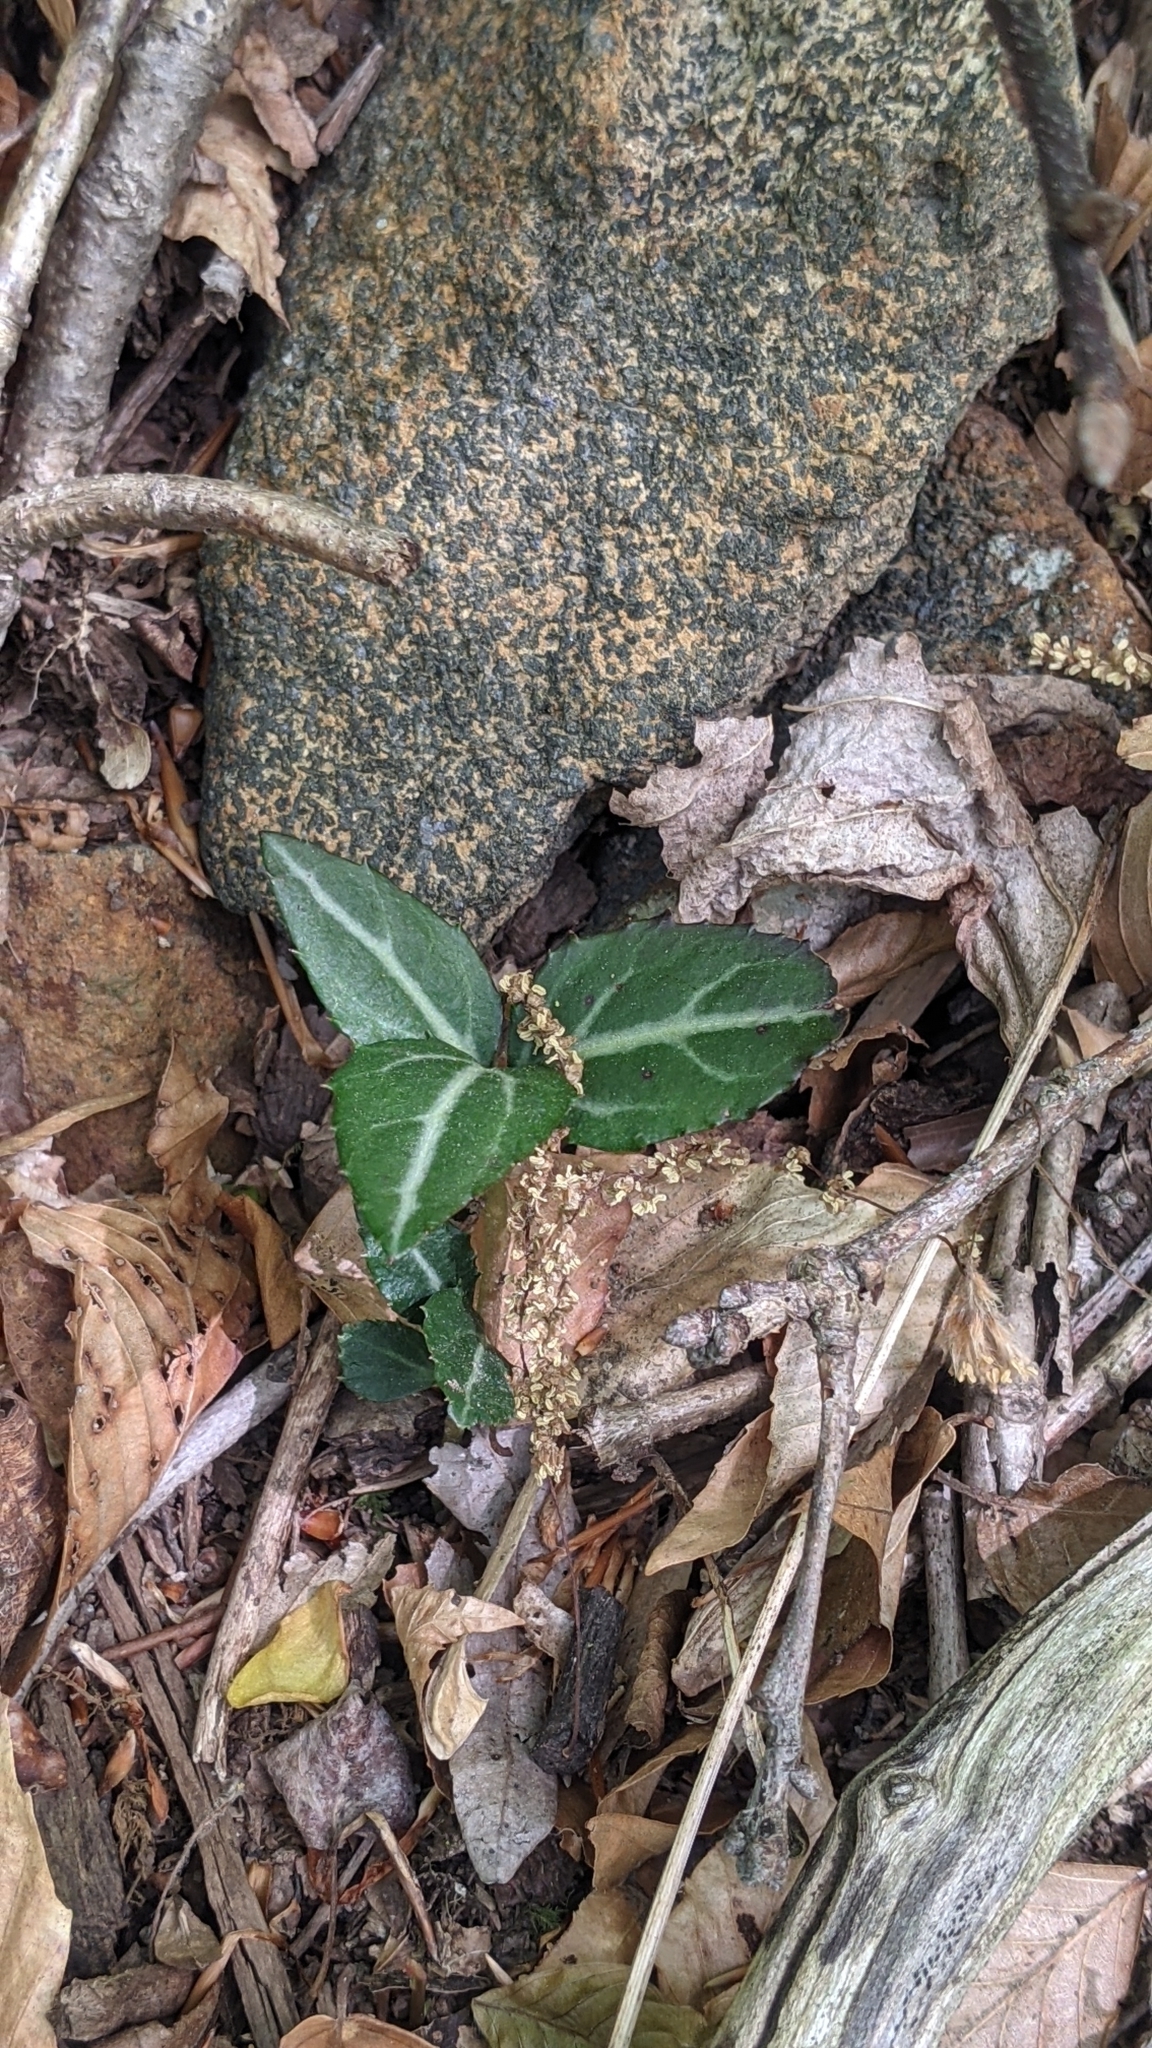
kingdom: Plantae
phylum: Tracheophyta
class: Magnoliopsida
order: Ericales
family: Ericaceae
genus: Chimaphila
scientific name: Chimaphila maculata
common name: Spotted pipsissewa
